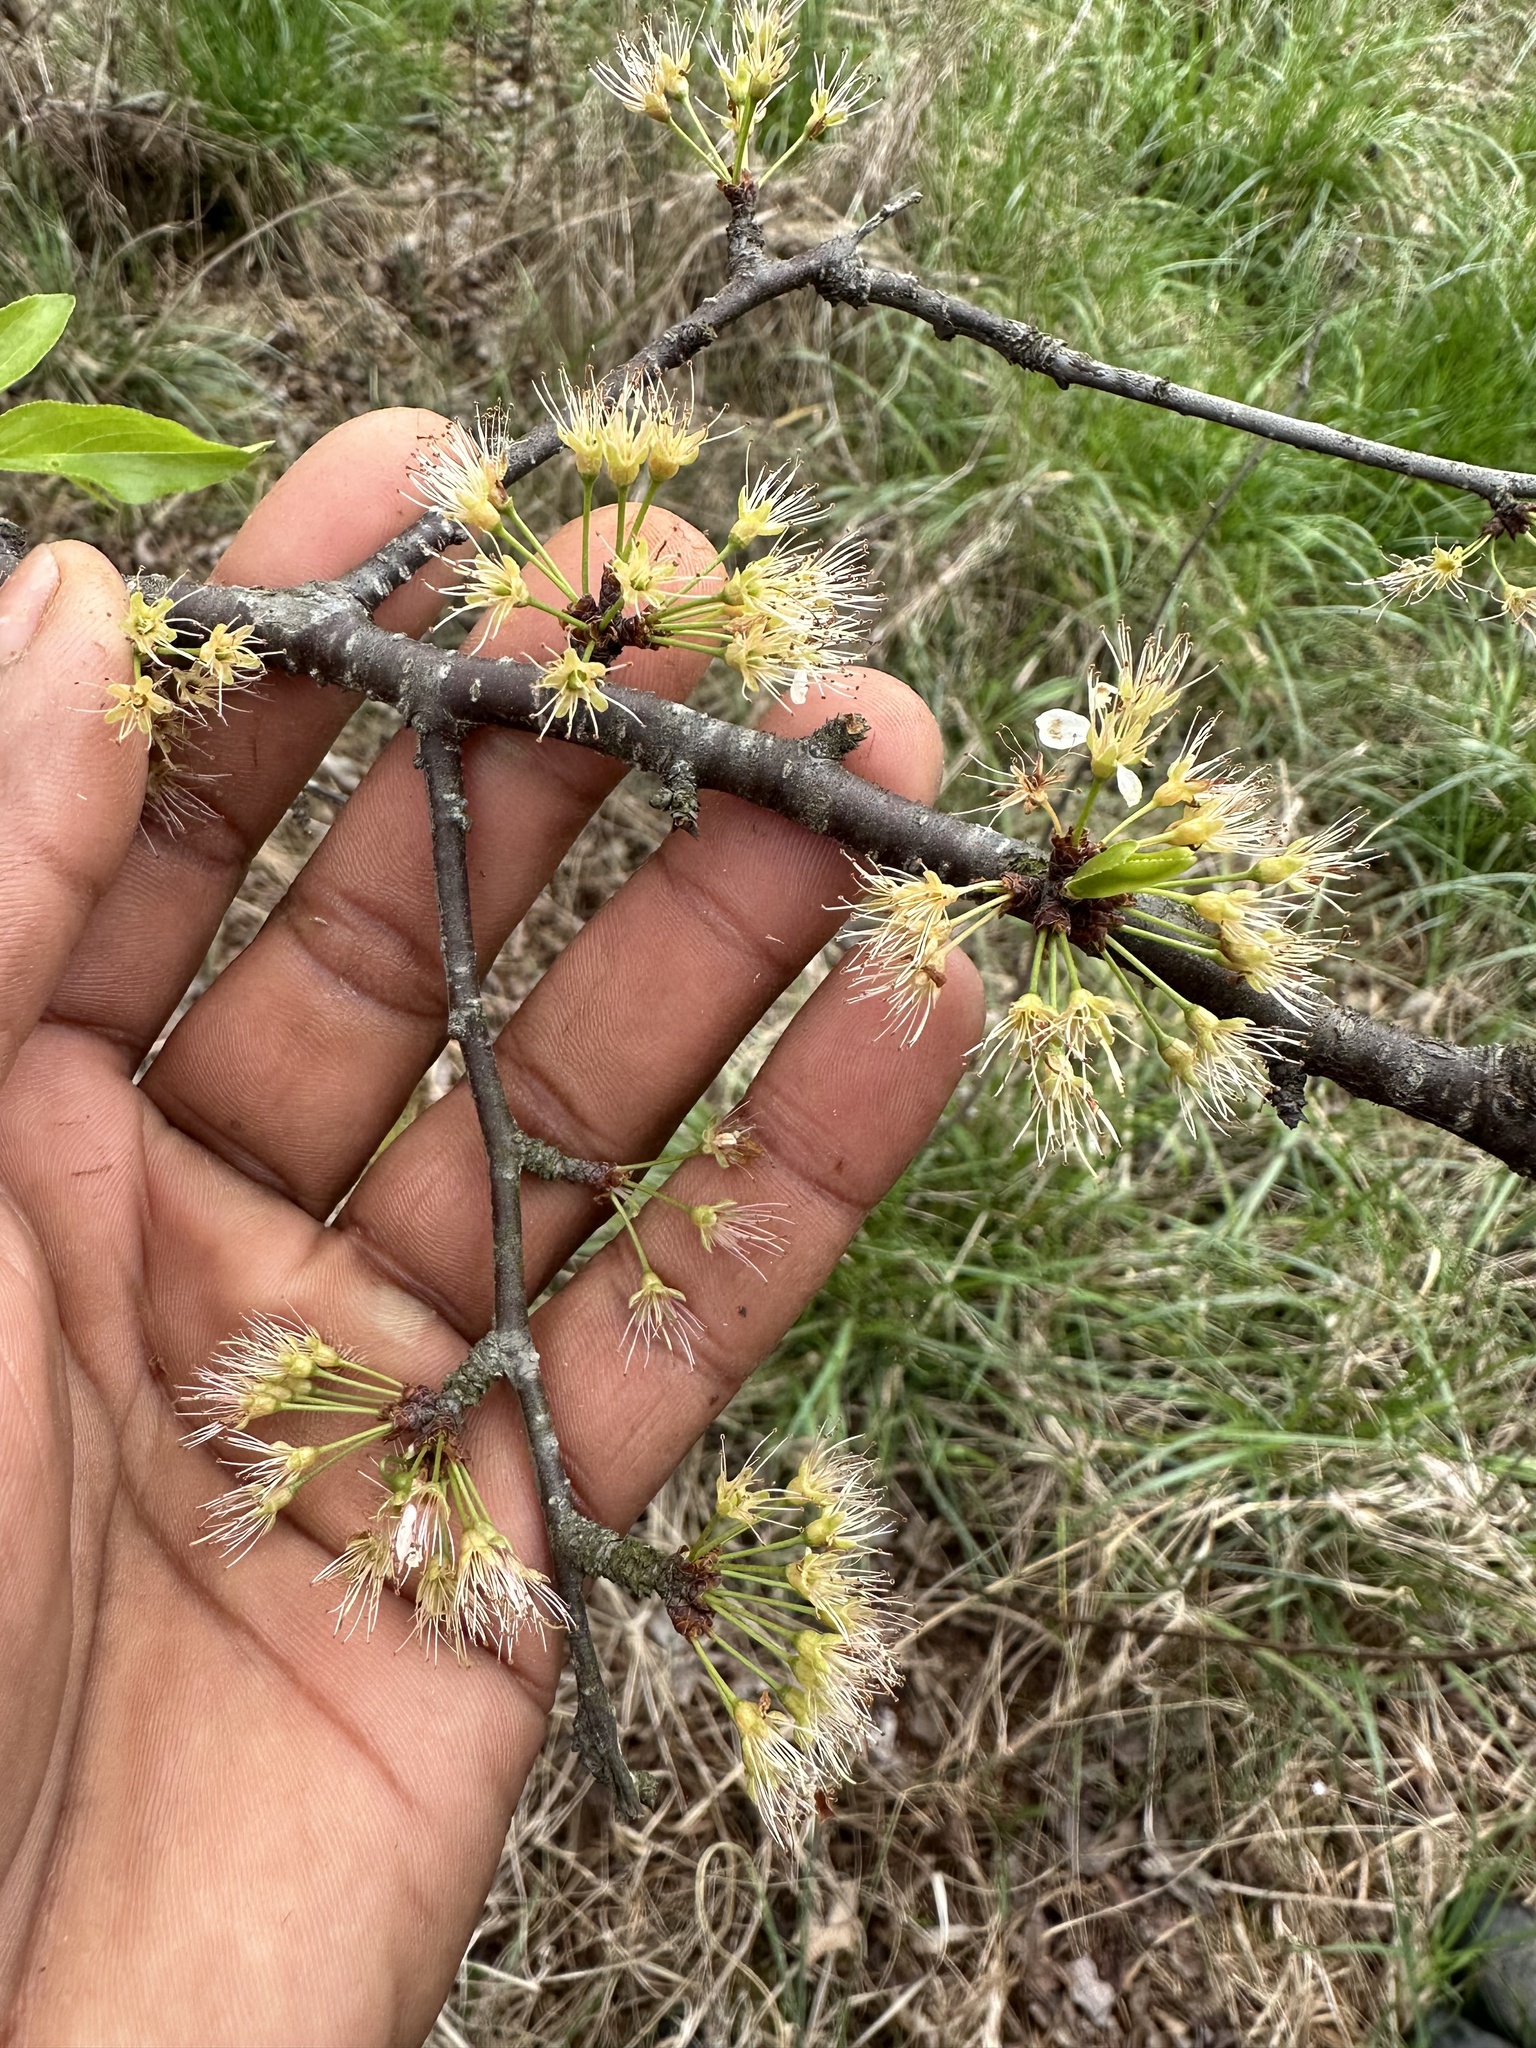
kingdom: Plantae
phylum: Tracheophyta
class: Magnoliopsida
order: Rosales
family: Rosaceae
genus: Prunus
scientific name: Prunus angustifolia
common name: Cherokee plum
